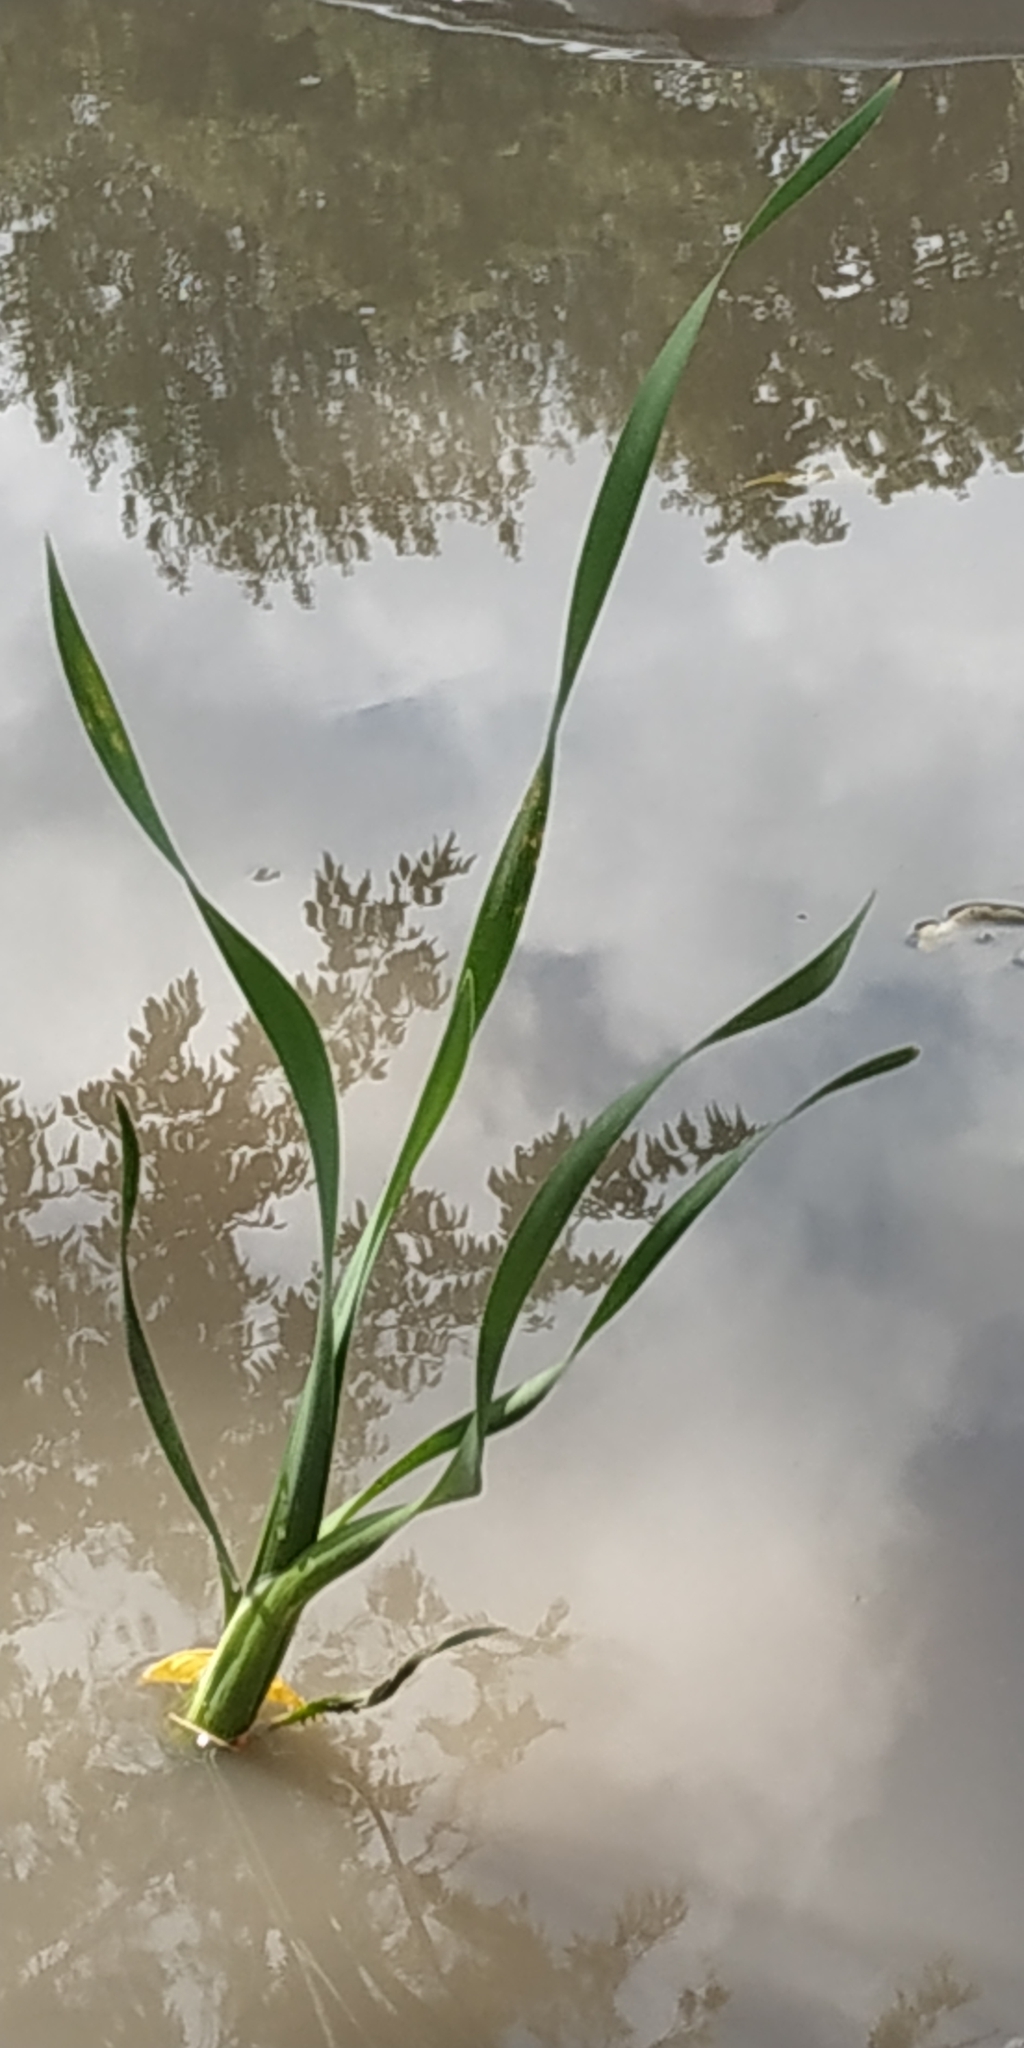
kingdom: Plantae
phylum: Tracheophyta
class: Liliopsida
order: Poales
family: Typhaceae
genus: Typha
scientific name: Typha latifolia
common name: Broadleaf cattail
